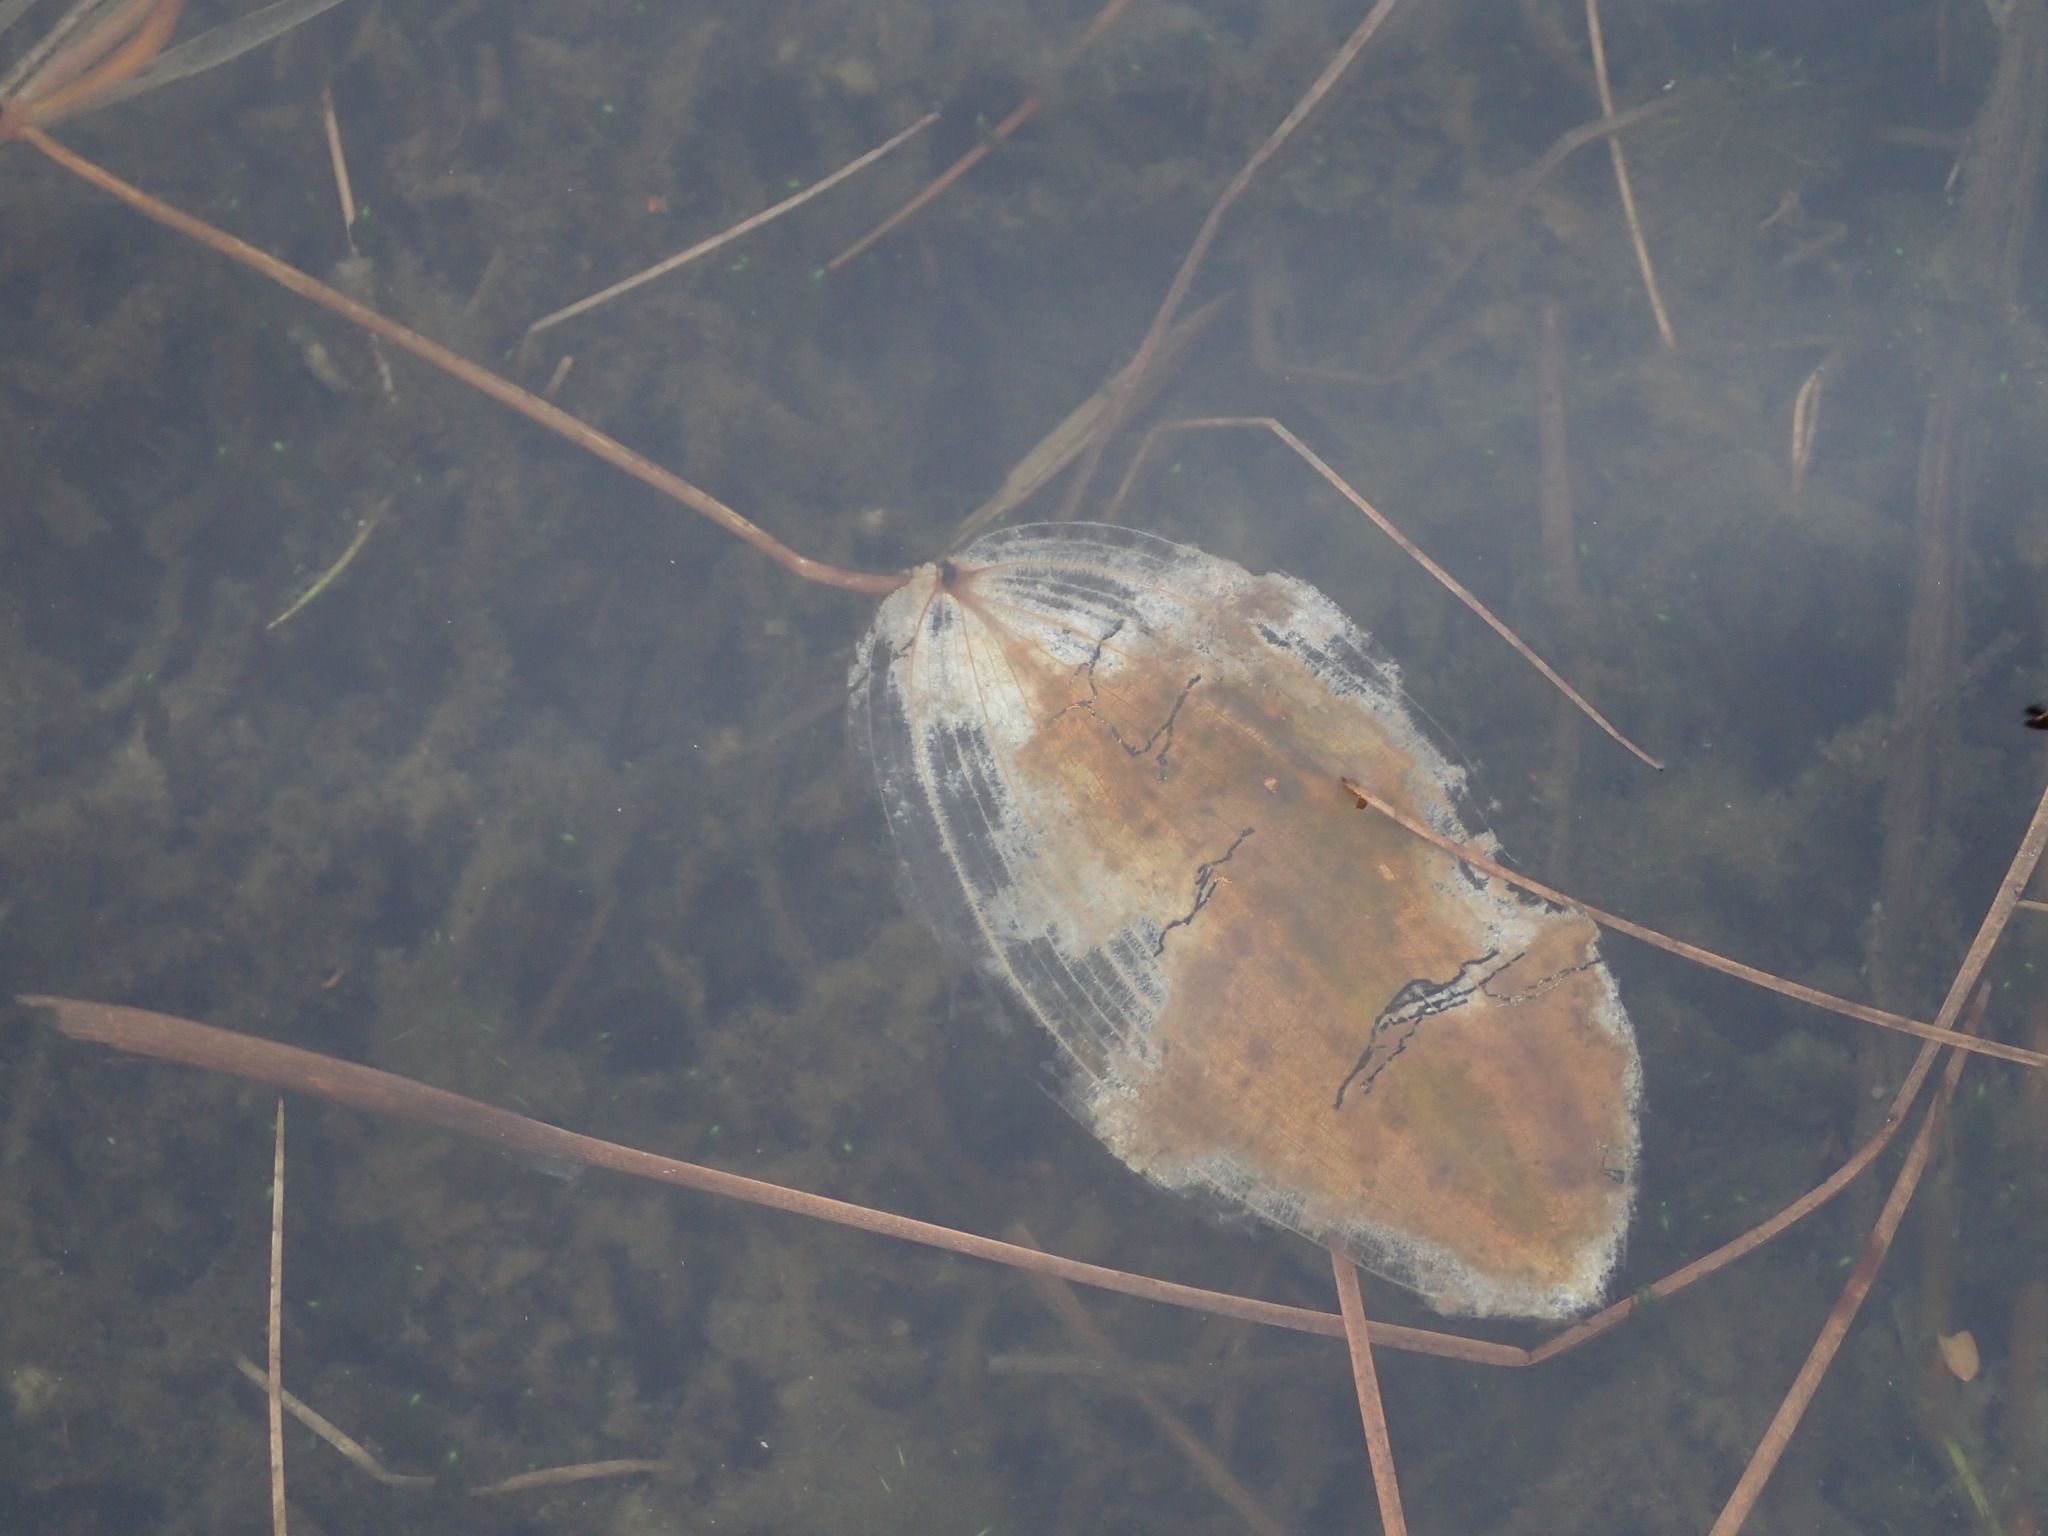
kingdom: Plantae
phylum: Tracheophyta
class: Liliopsida
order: Alismatales
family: Potamogetonaceae
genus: Potamogeton
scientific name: Potamogeton natans
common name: Broad-leaved pondweed
